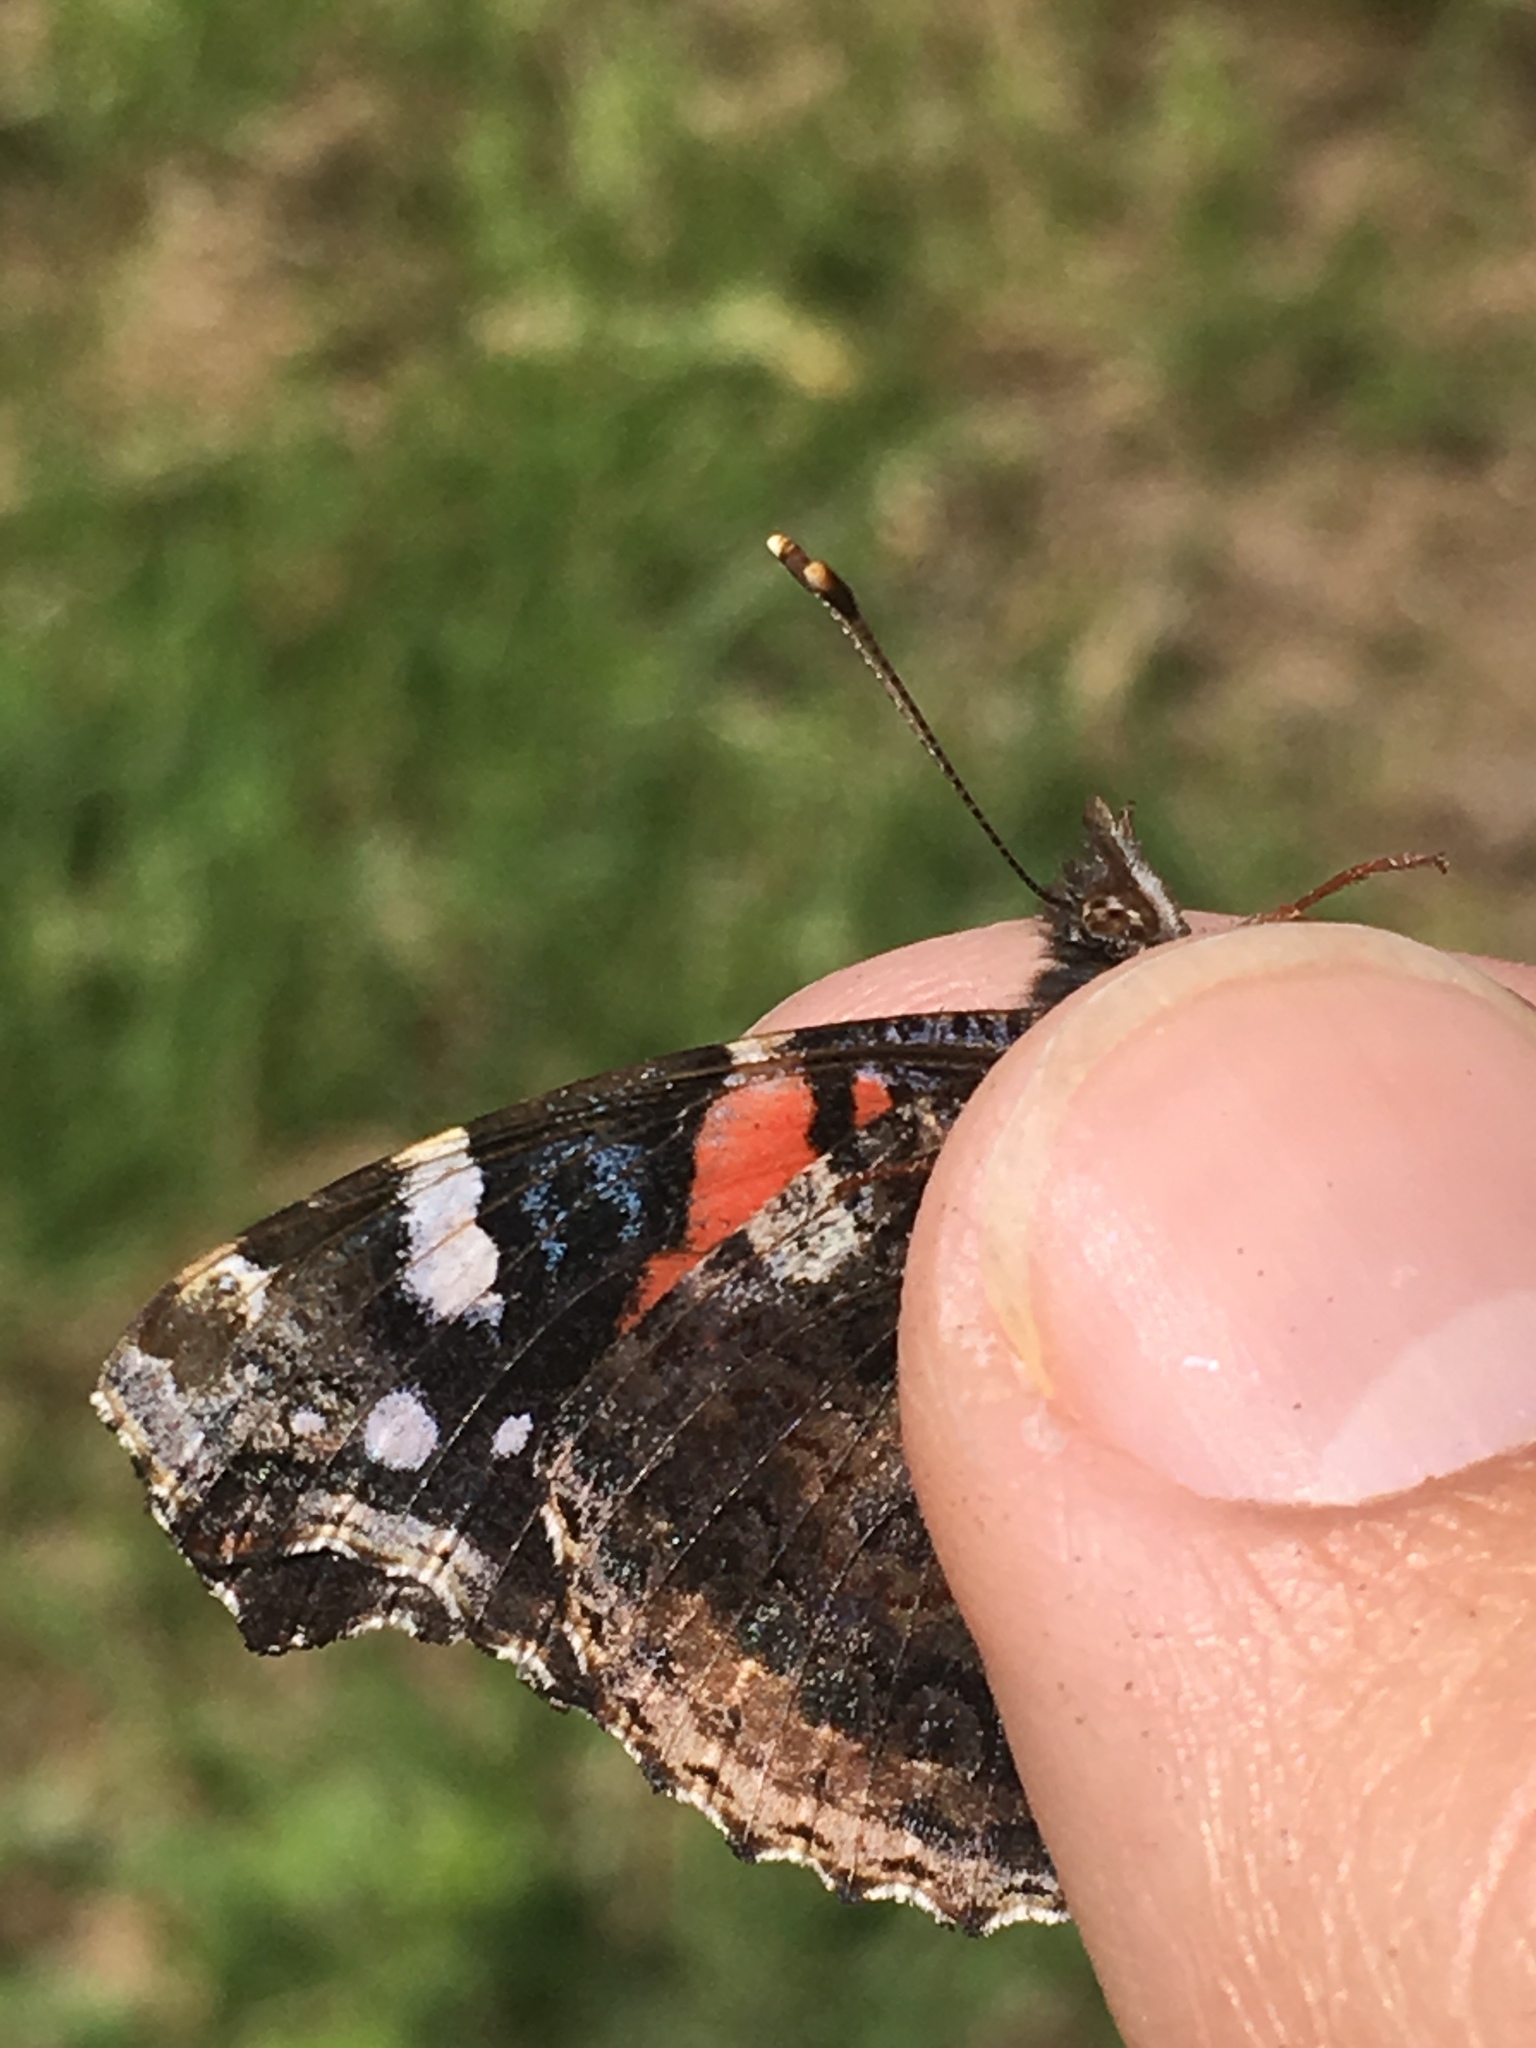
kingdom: Animalia
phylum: Arthropoda
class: Insecta
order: Lepidoptera
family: Nymphalidae
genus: Vanessa
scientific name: Vanessa atalanta
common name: Red admiral
